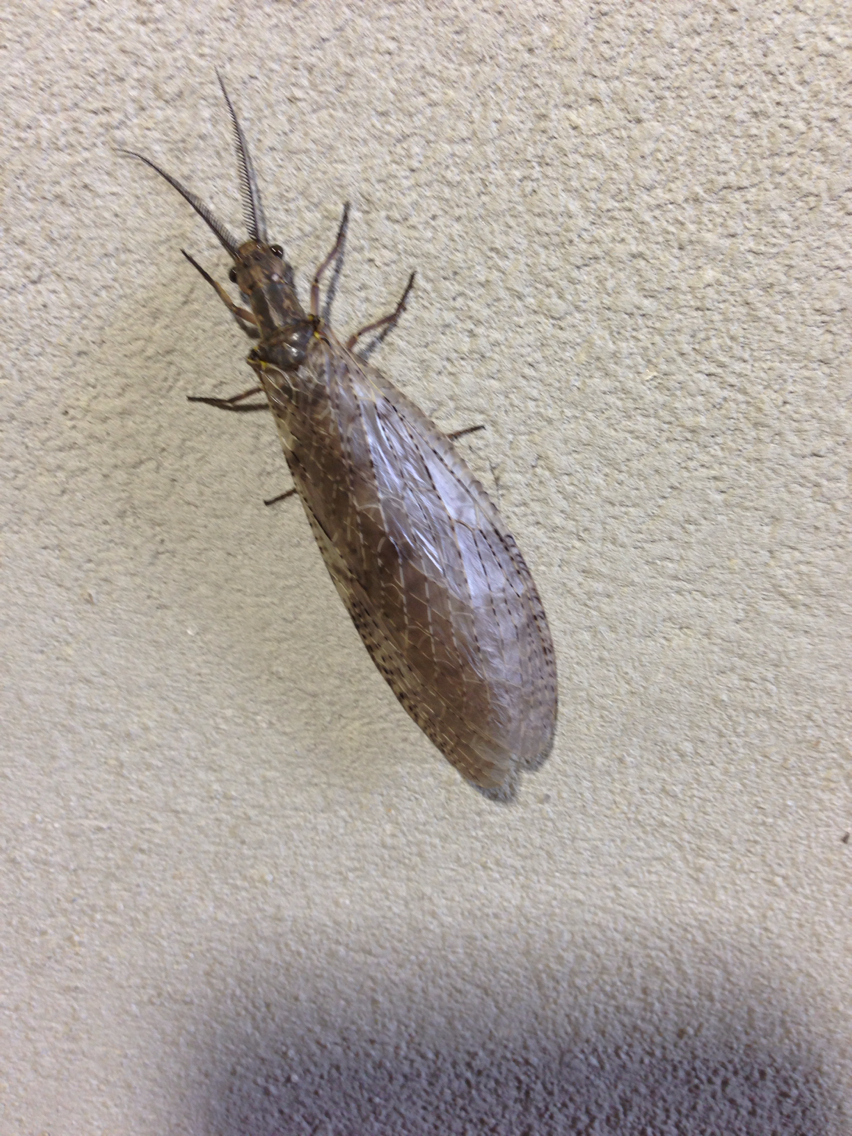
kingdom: Animalia
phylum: Arthropoda
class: Insecta
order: Megaloptera
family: Corydalidae
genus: Chauliodes
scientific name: Chauliodes pectinicornis
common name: Summer fishfly
